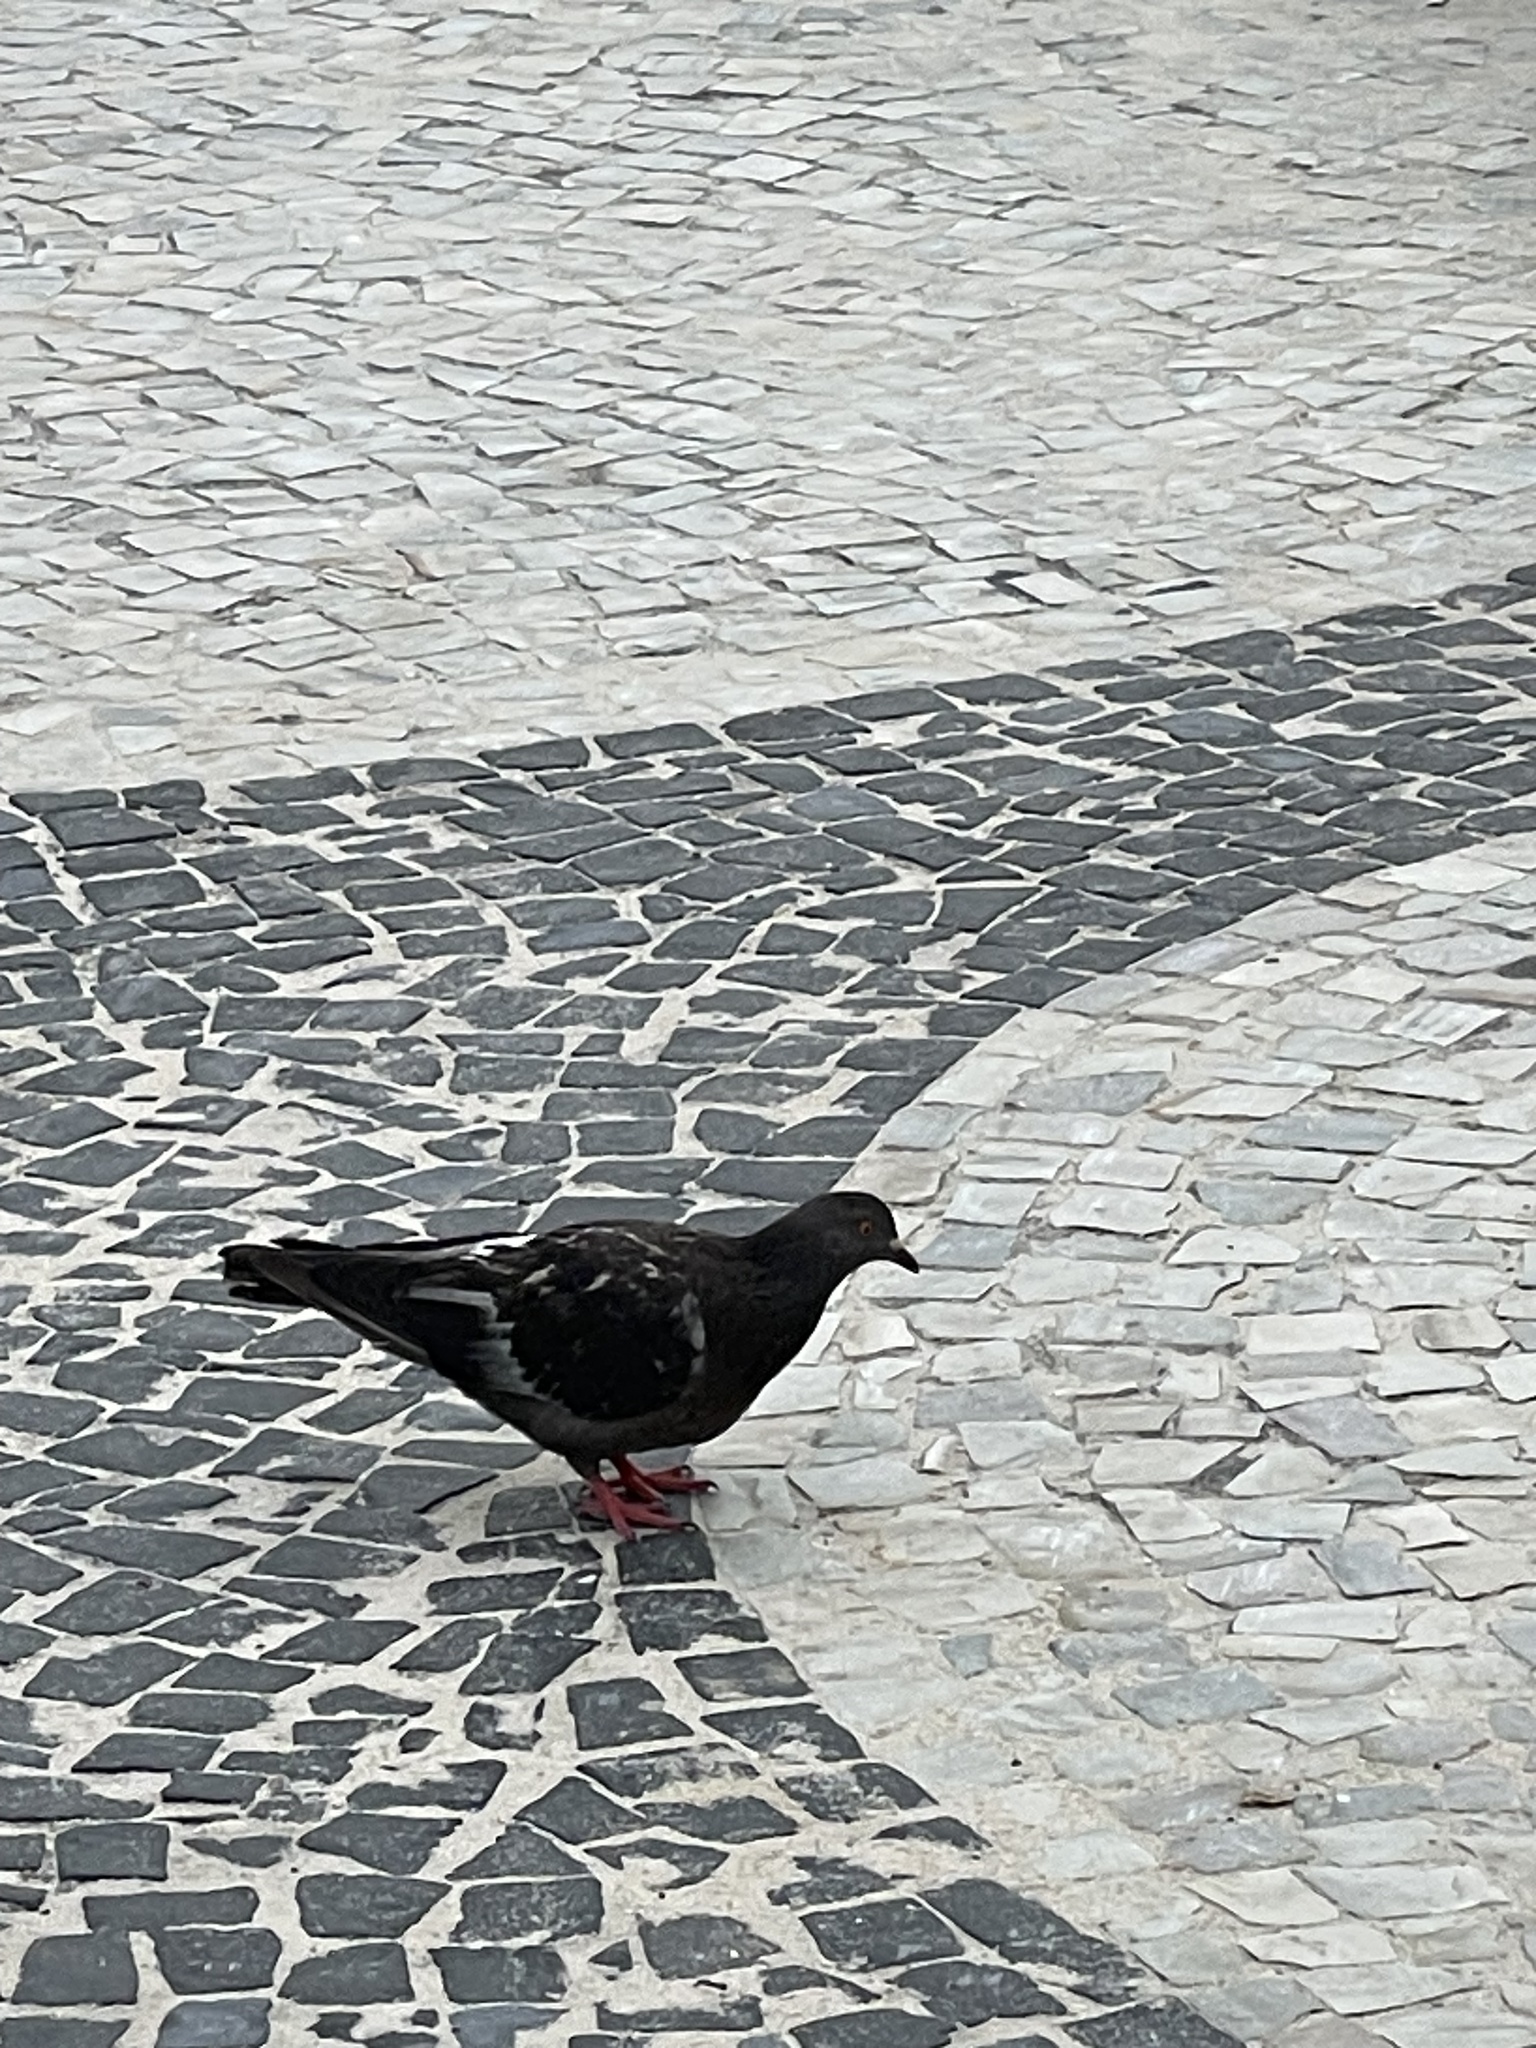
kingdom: Animalia
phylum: Chordata
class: Aves
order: Columbiformes
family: Columbidae
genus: Columba
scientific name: Columba livia
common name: Rock pigeon
